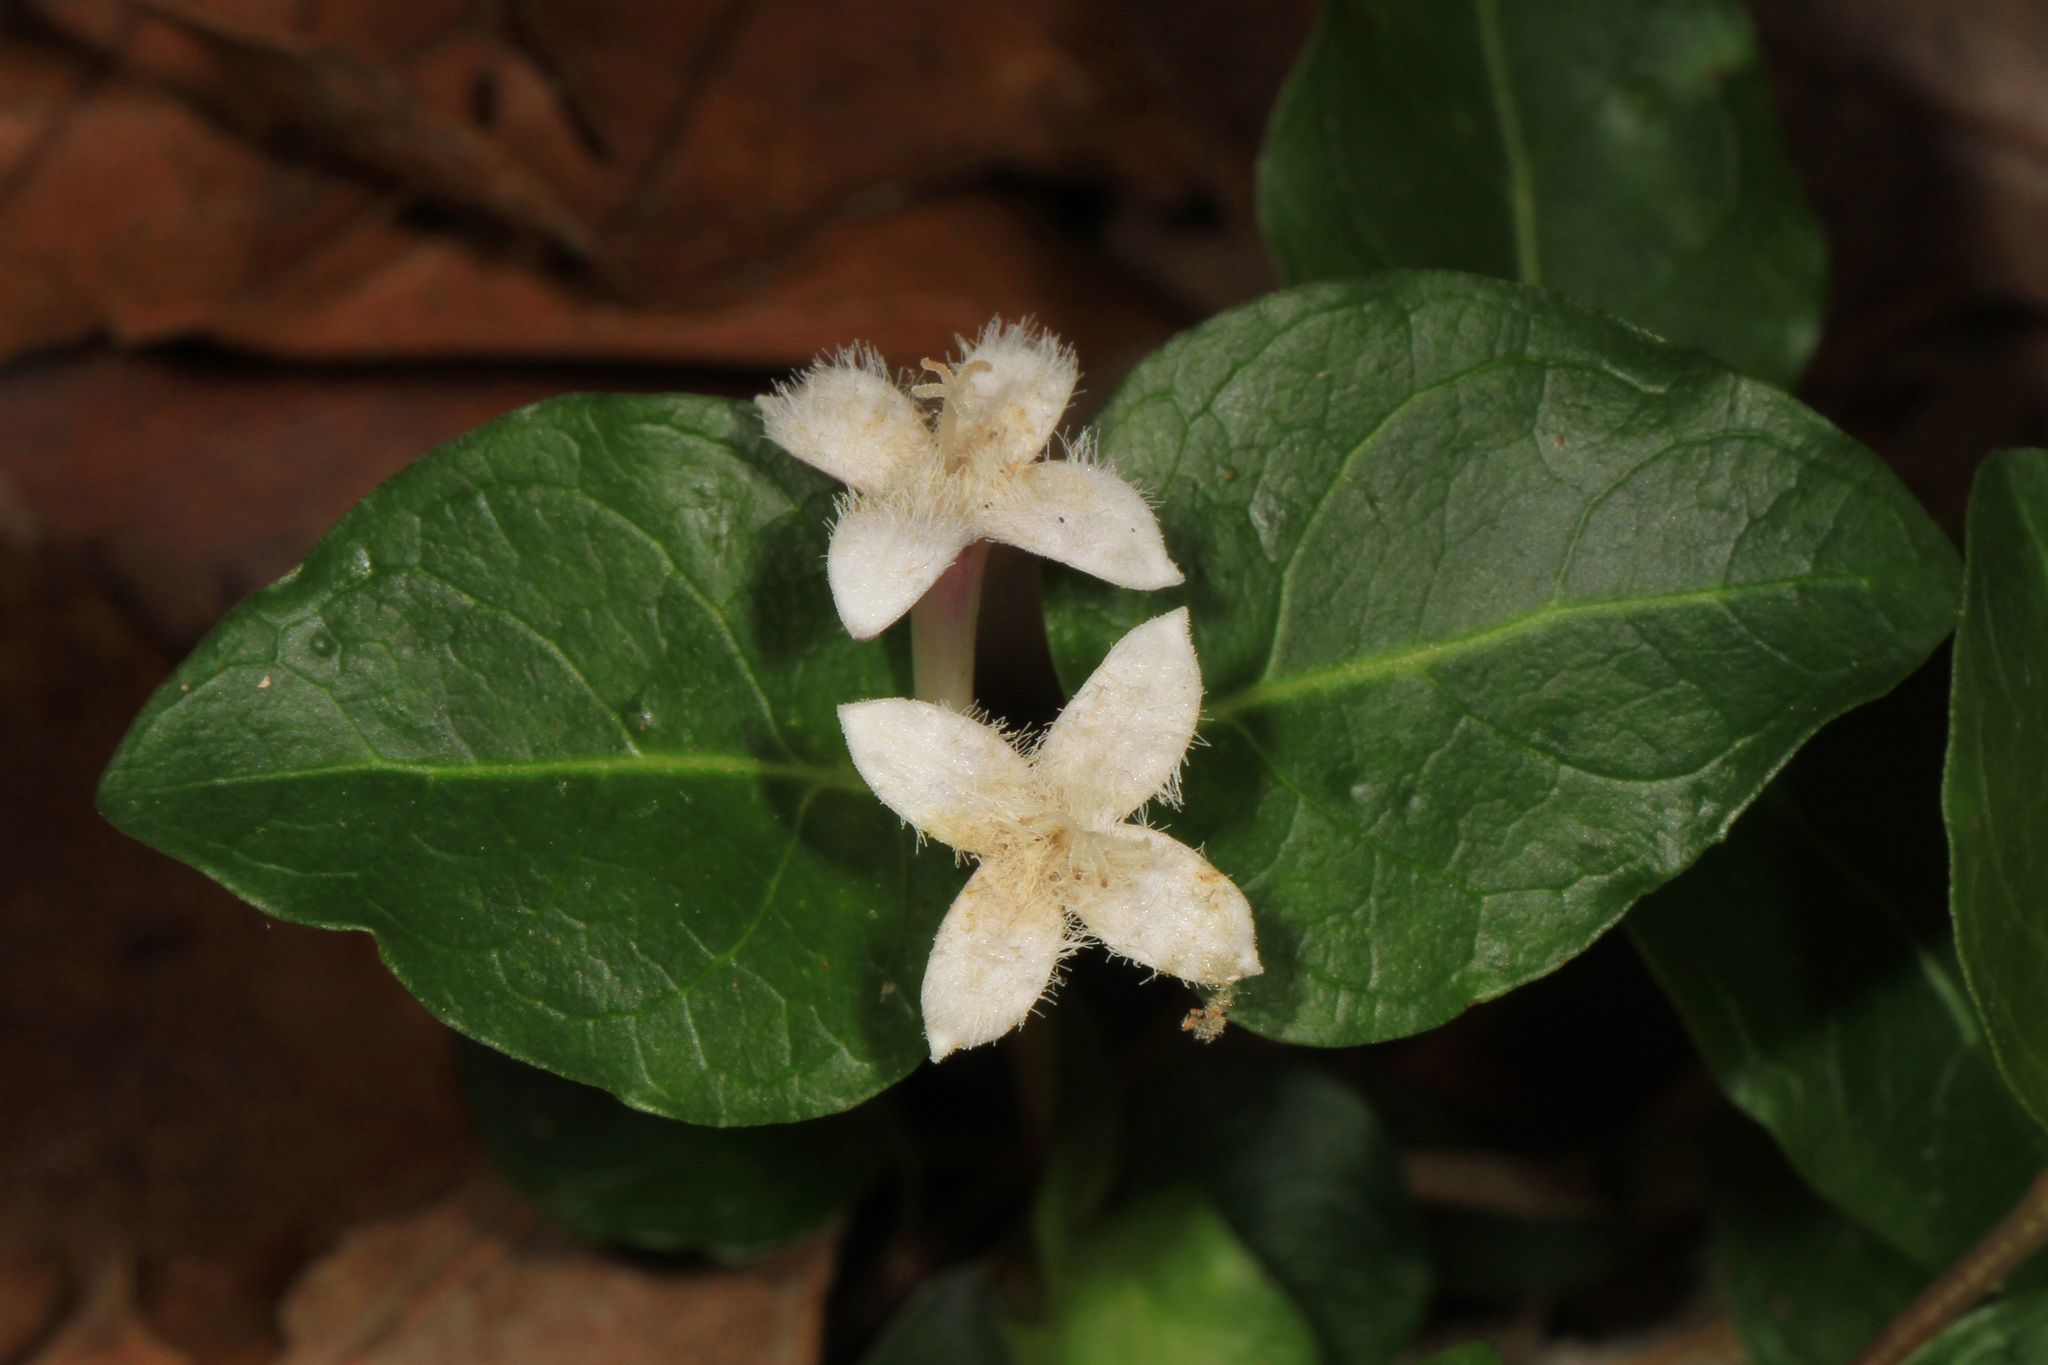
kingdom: Plantae
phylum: Tracheophyta
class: Magnoliopsida
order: Gentianales
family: Rubiaceae
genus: Mitchella
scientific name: Mitchella repens
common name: Partridge-berry
